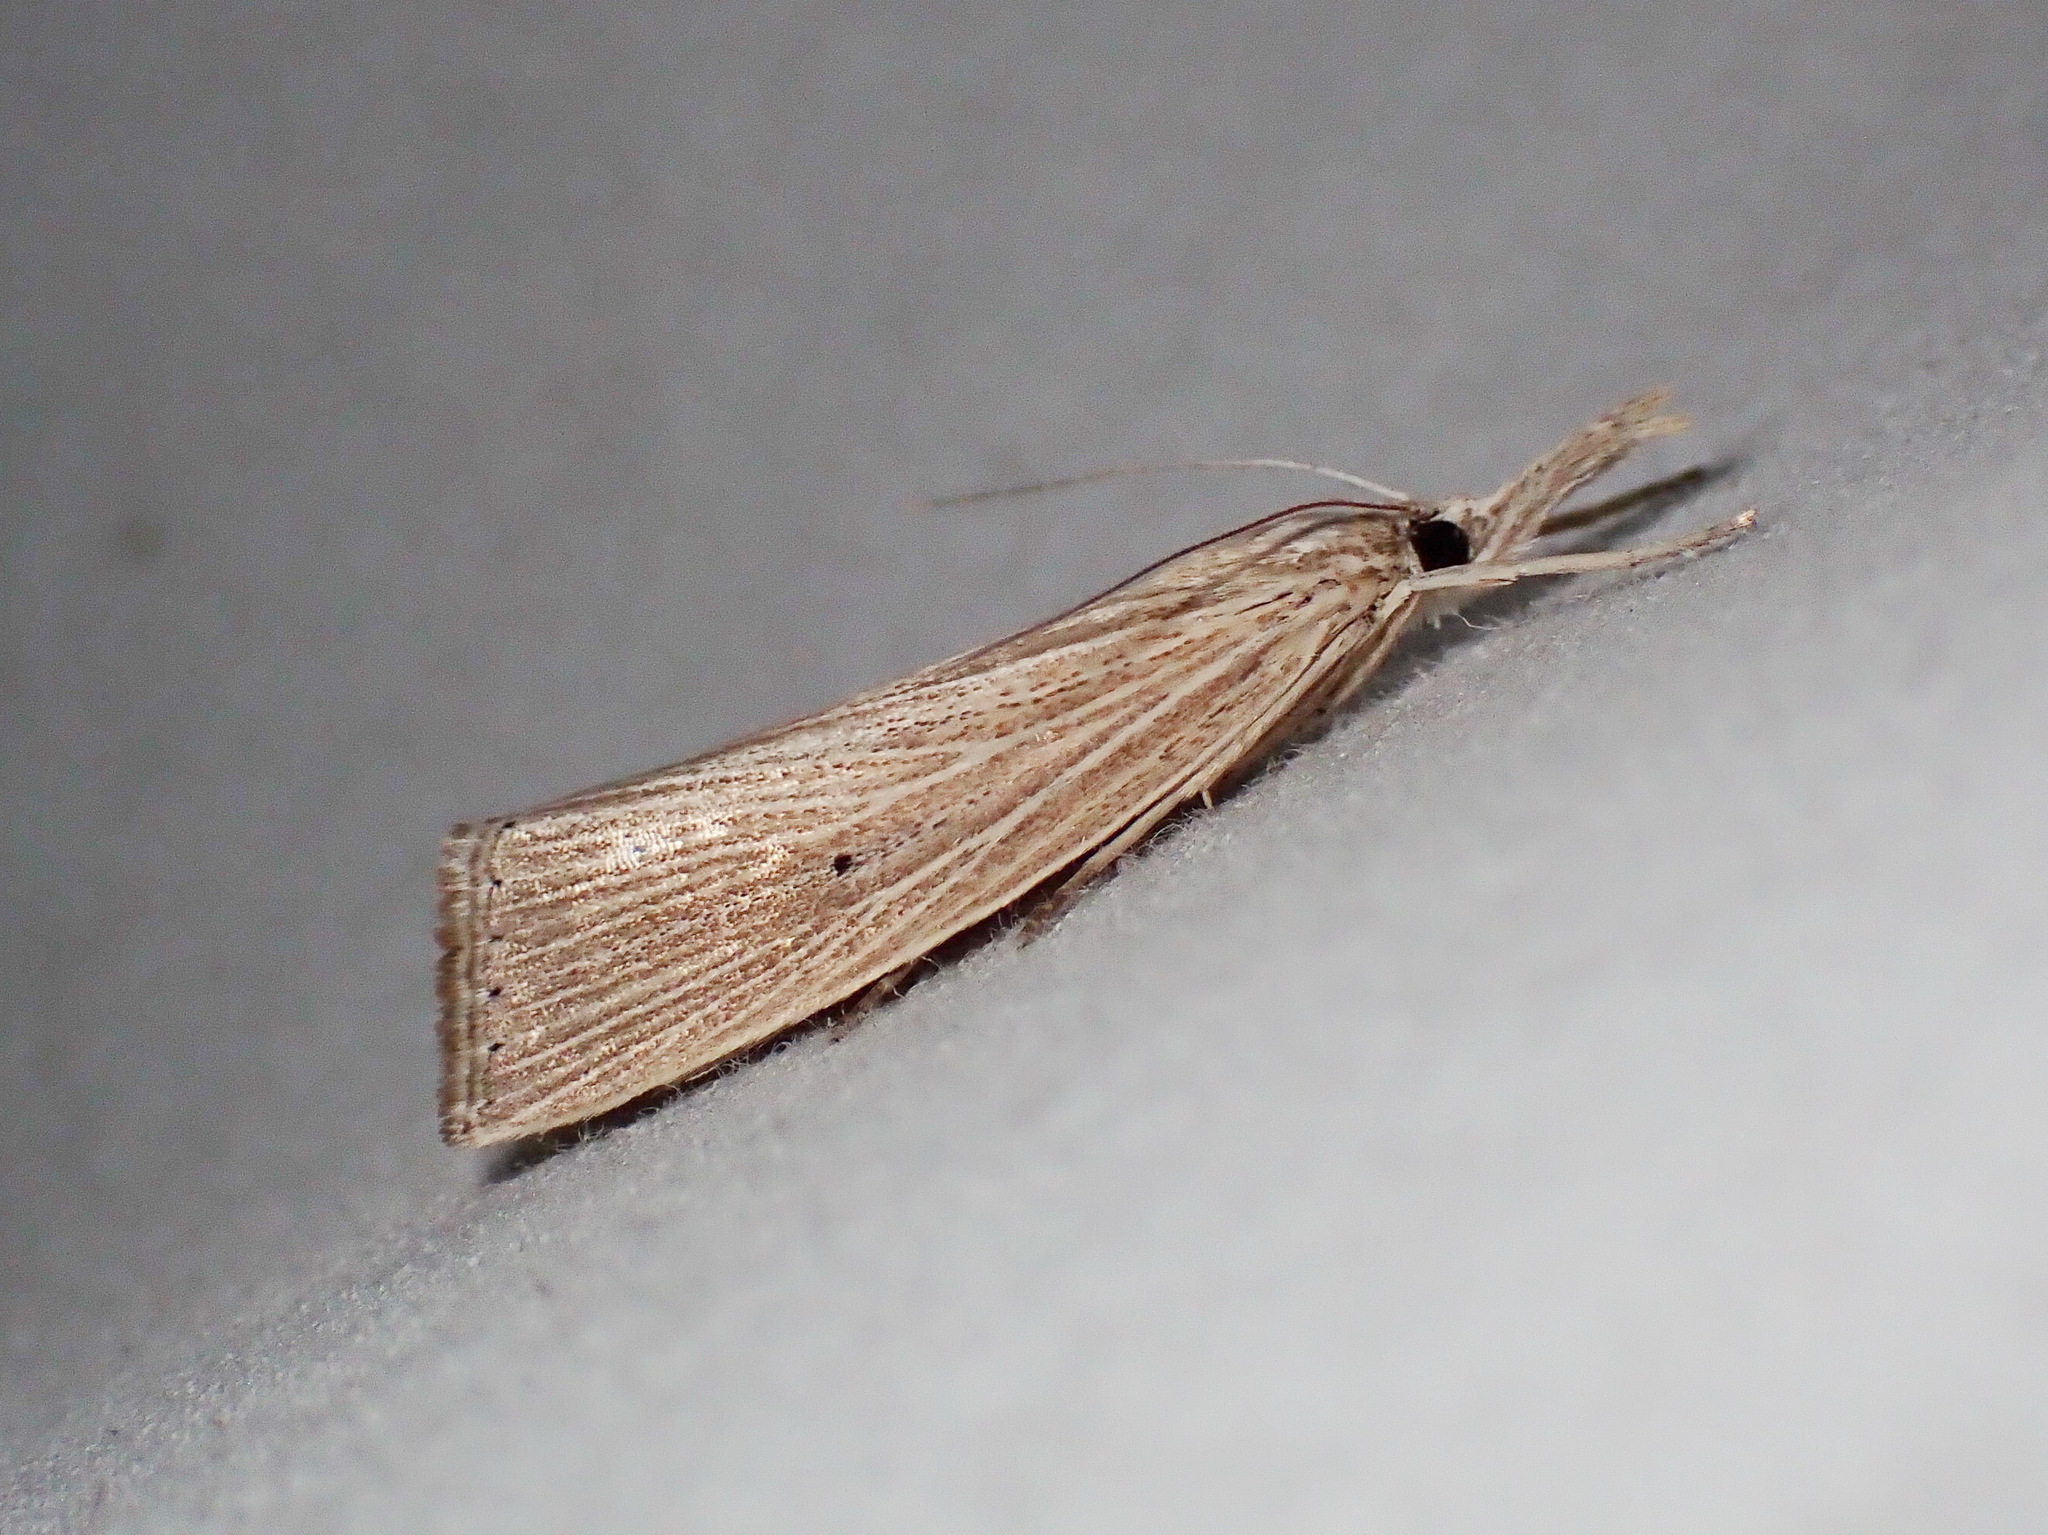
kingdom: Animalia
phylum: Arthropoda
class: Insecta
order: Lepidoptera
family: Crambidae
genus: Eoreuma
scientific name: Eoreuma densellus
